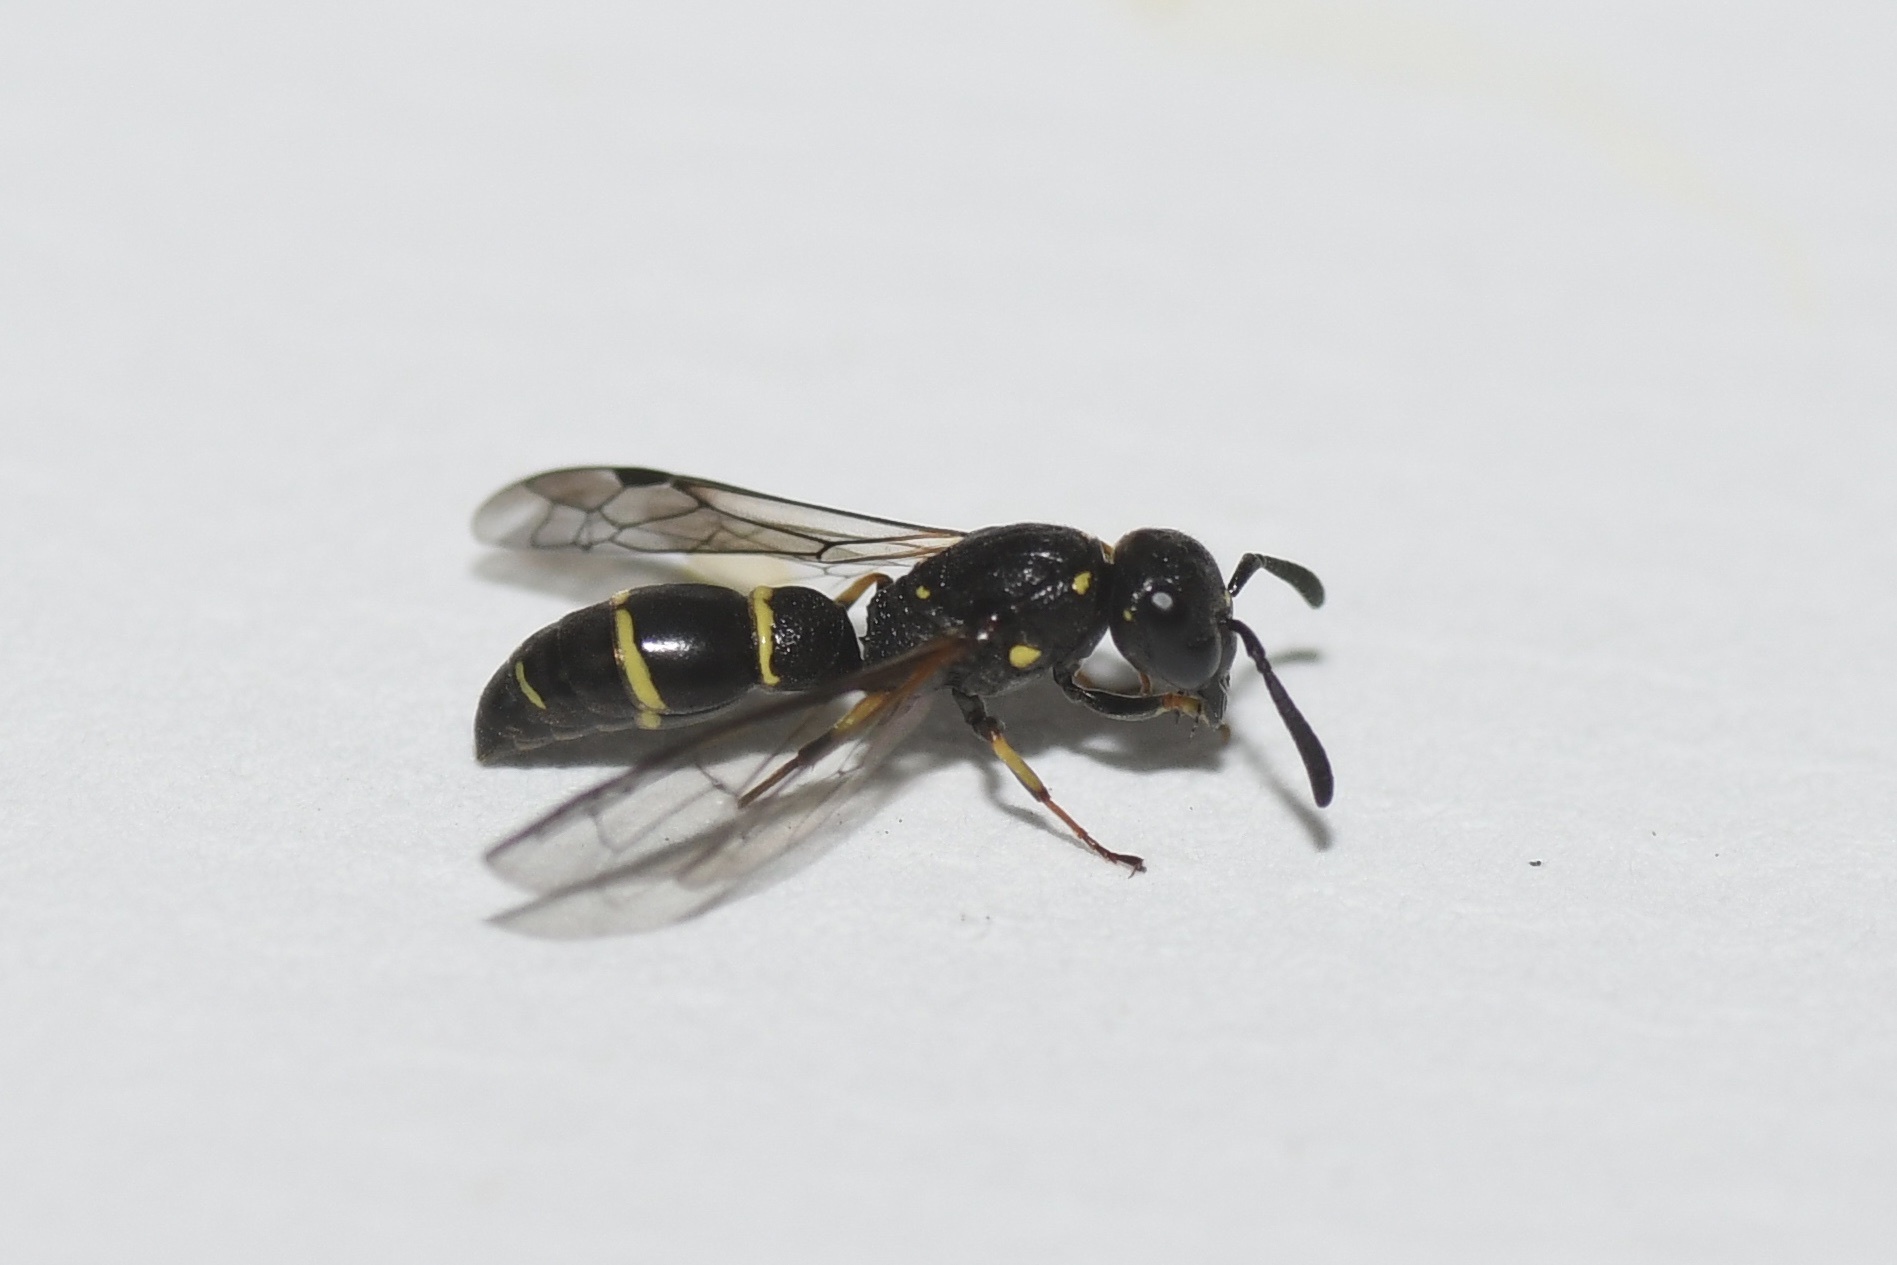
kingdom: Animalia
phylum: Arthropoda
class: Insecta
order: Hymenoptera
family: Eumenidae
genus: Symmorphus
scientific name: Symmorphus canadensis
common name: Canadian potter wasp
